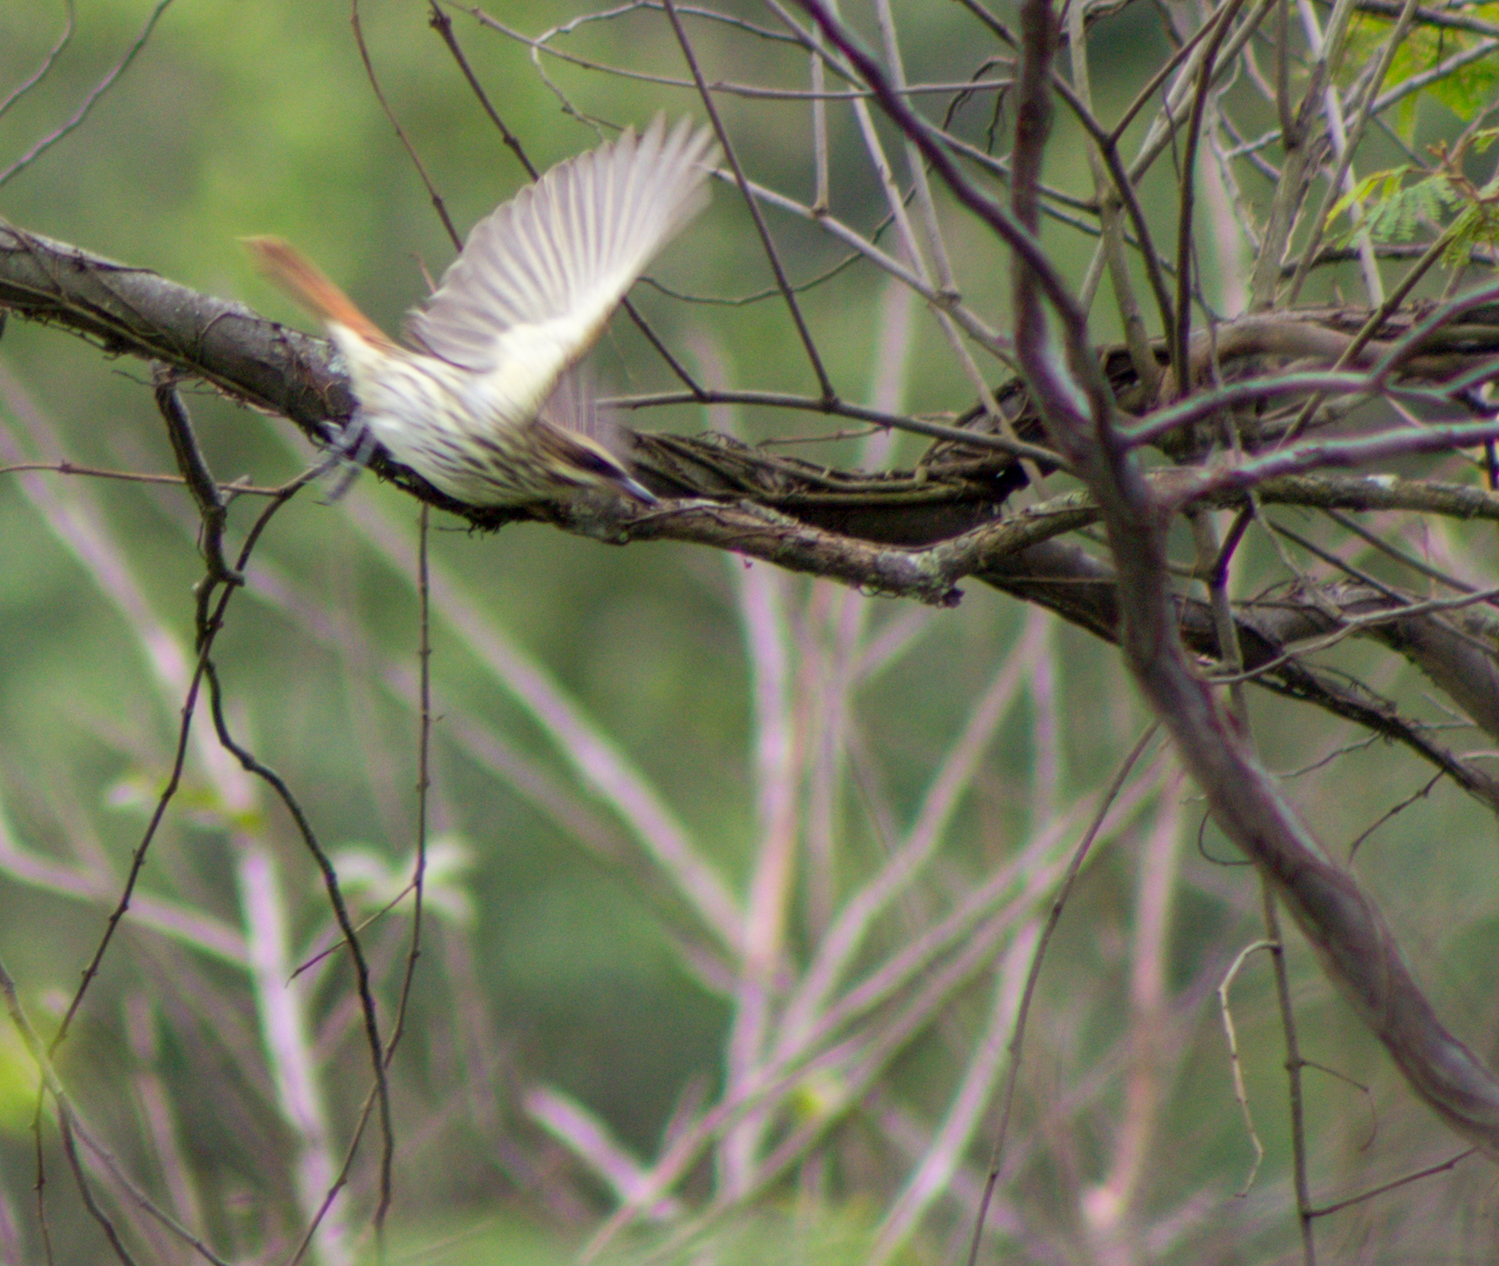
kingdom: Animalia
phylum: Chordata
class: Aves
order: Passeriformes
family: Tyrannidae
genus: Myiodynastes
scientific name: Myiodynastes maculatus
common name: Streaked flycatcher
